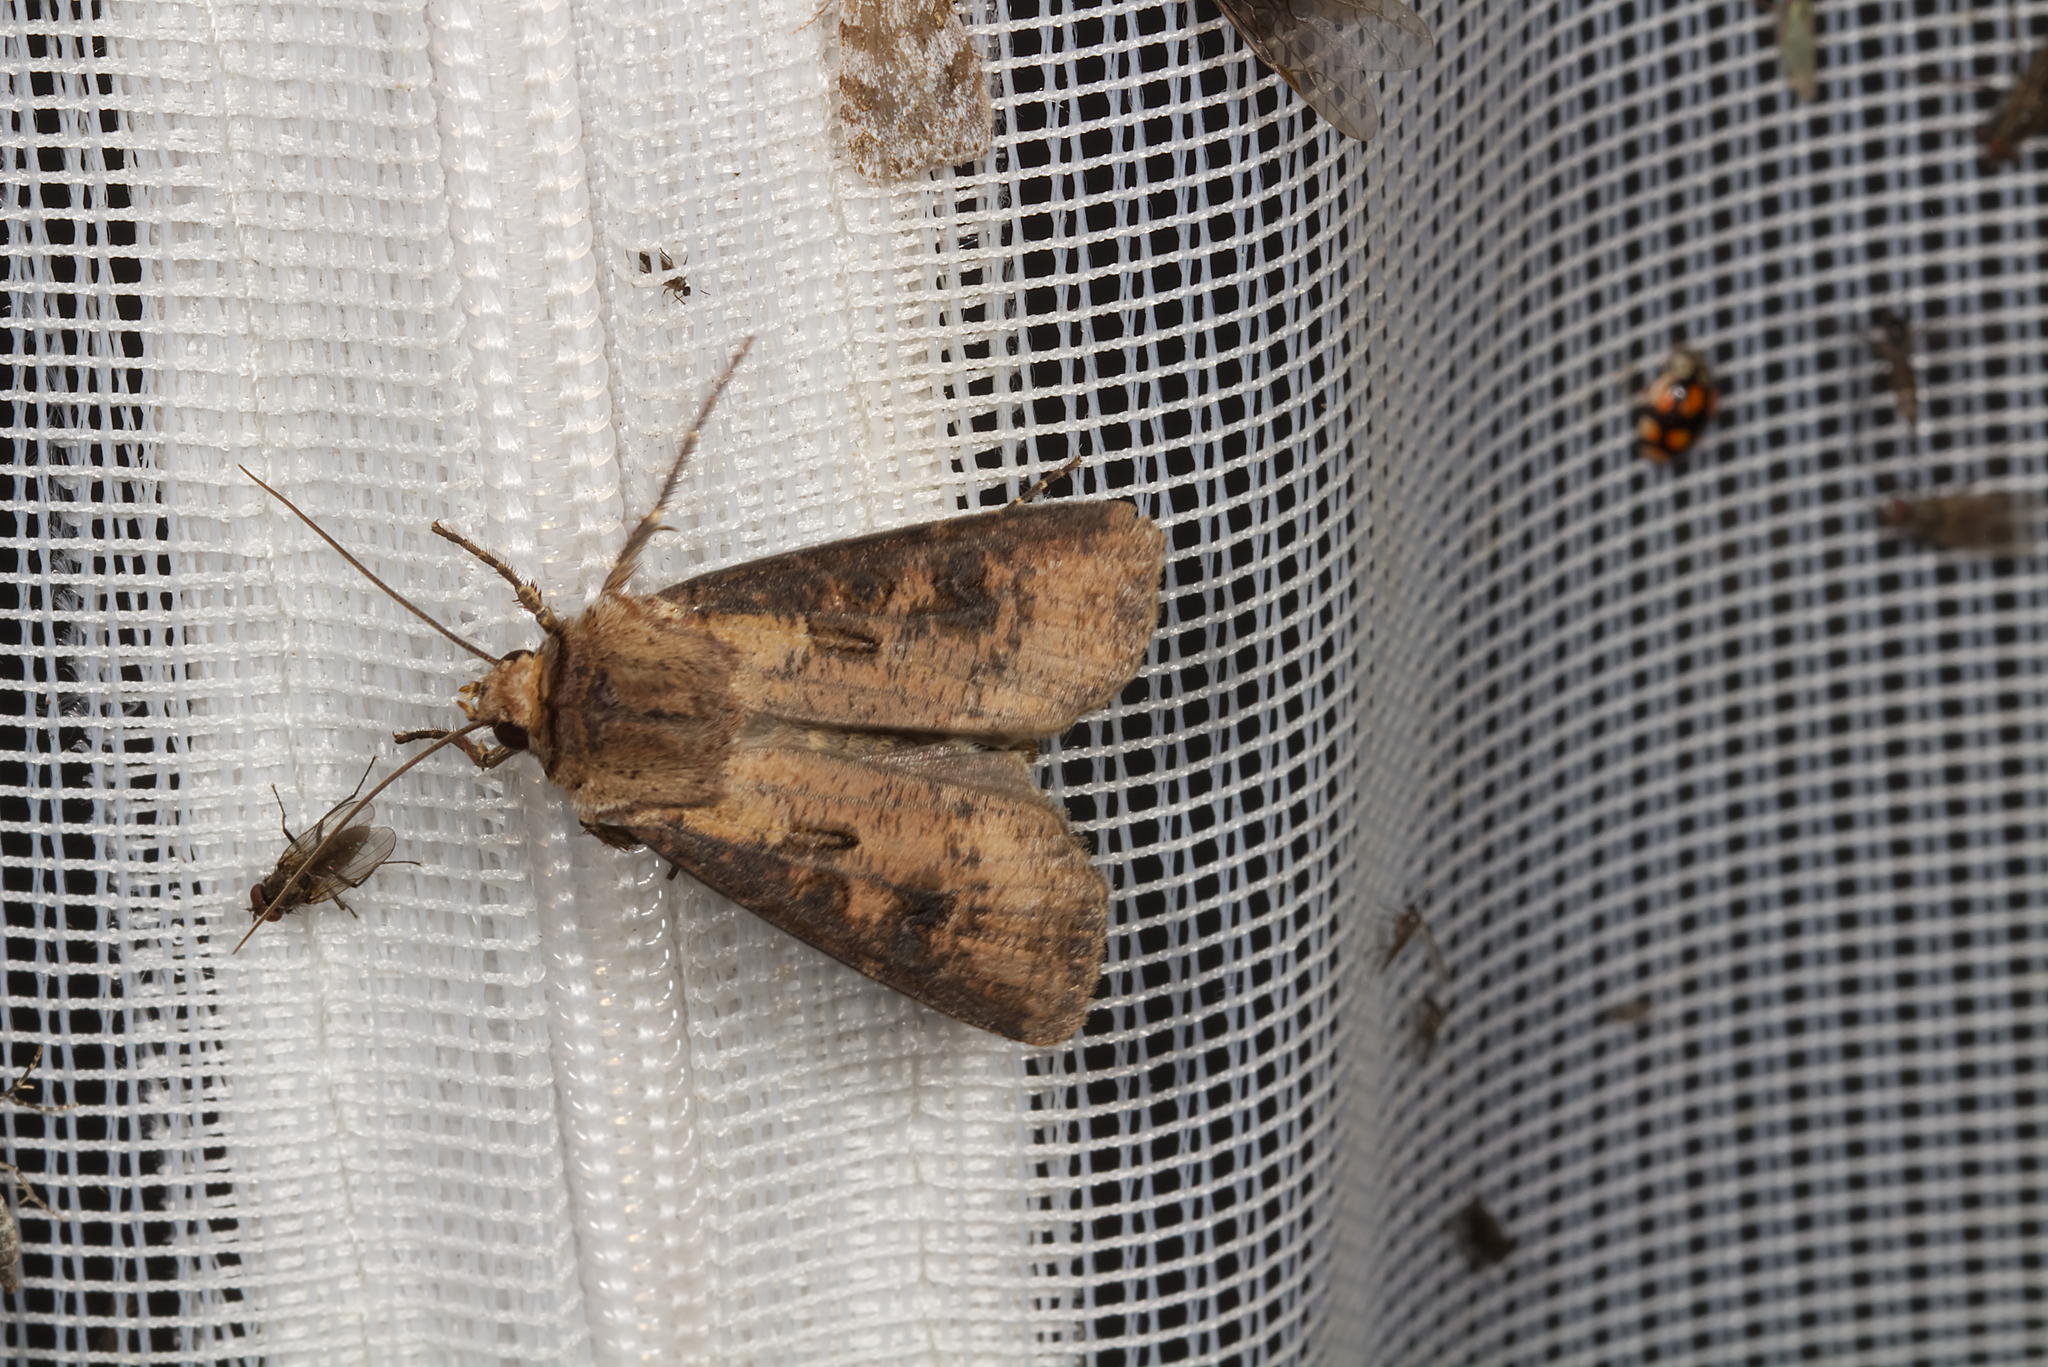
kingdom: Animalia
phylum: Arthropoda
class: Insecta
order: Lepidoptera
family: Noctuidae
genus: Agrotis
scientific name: Agrotis clavis
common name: Heart and club
